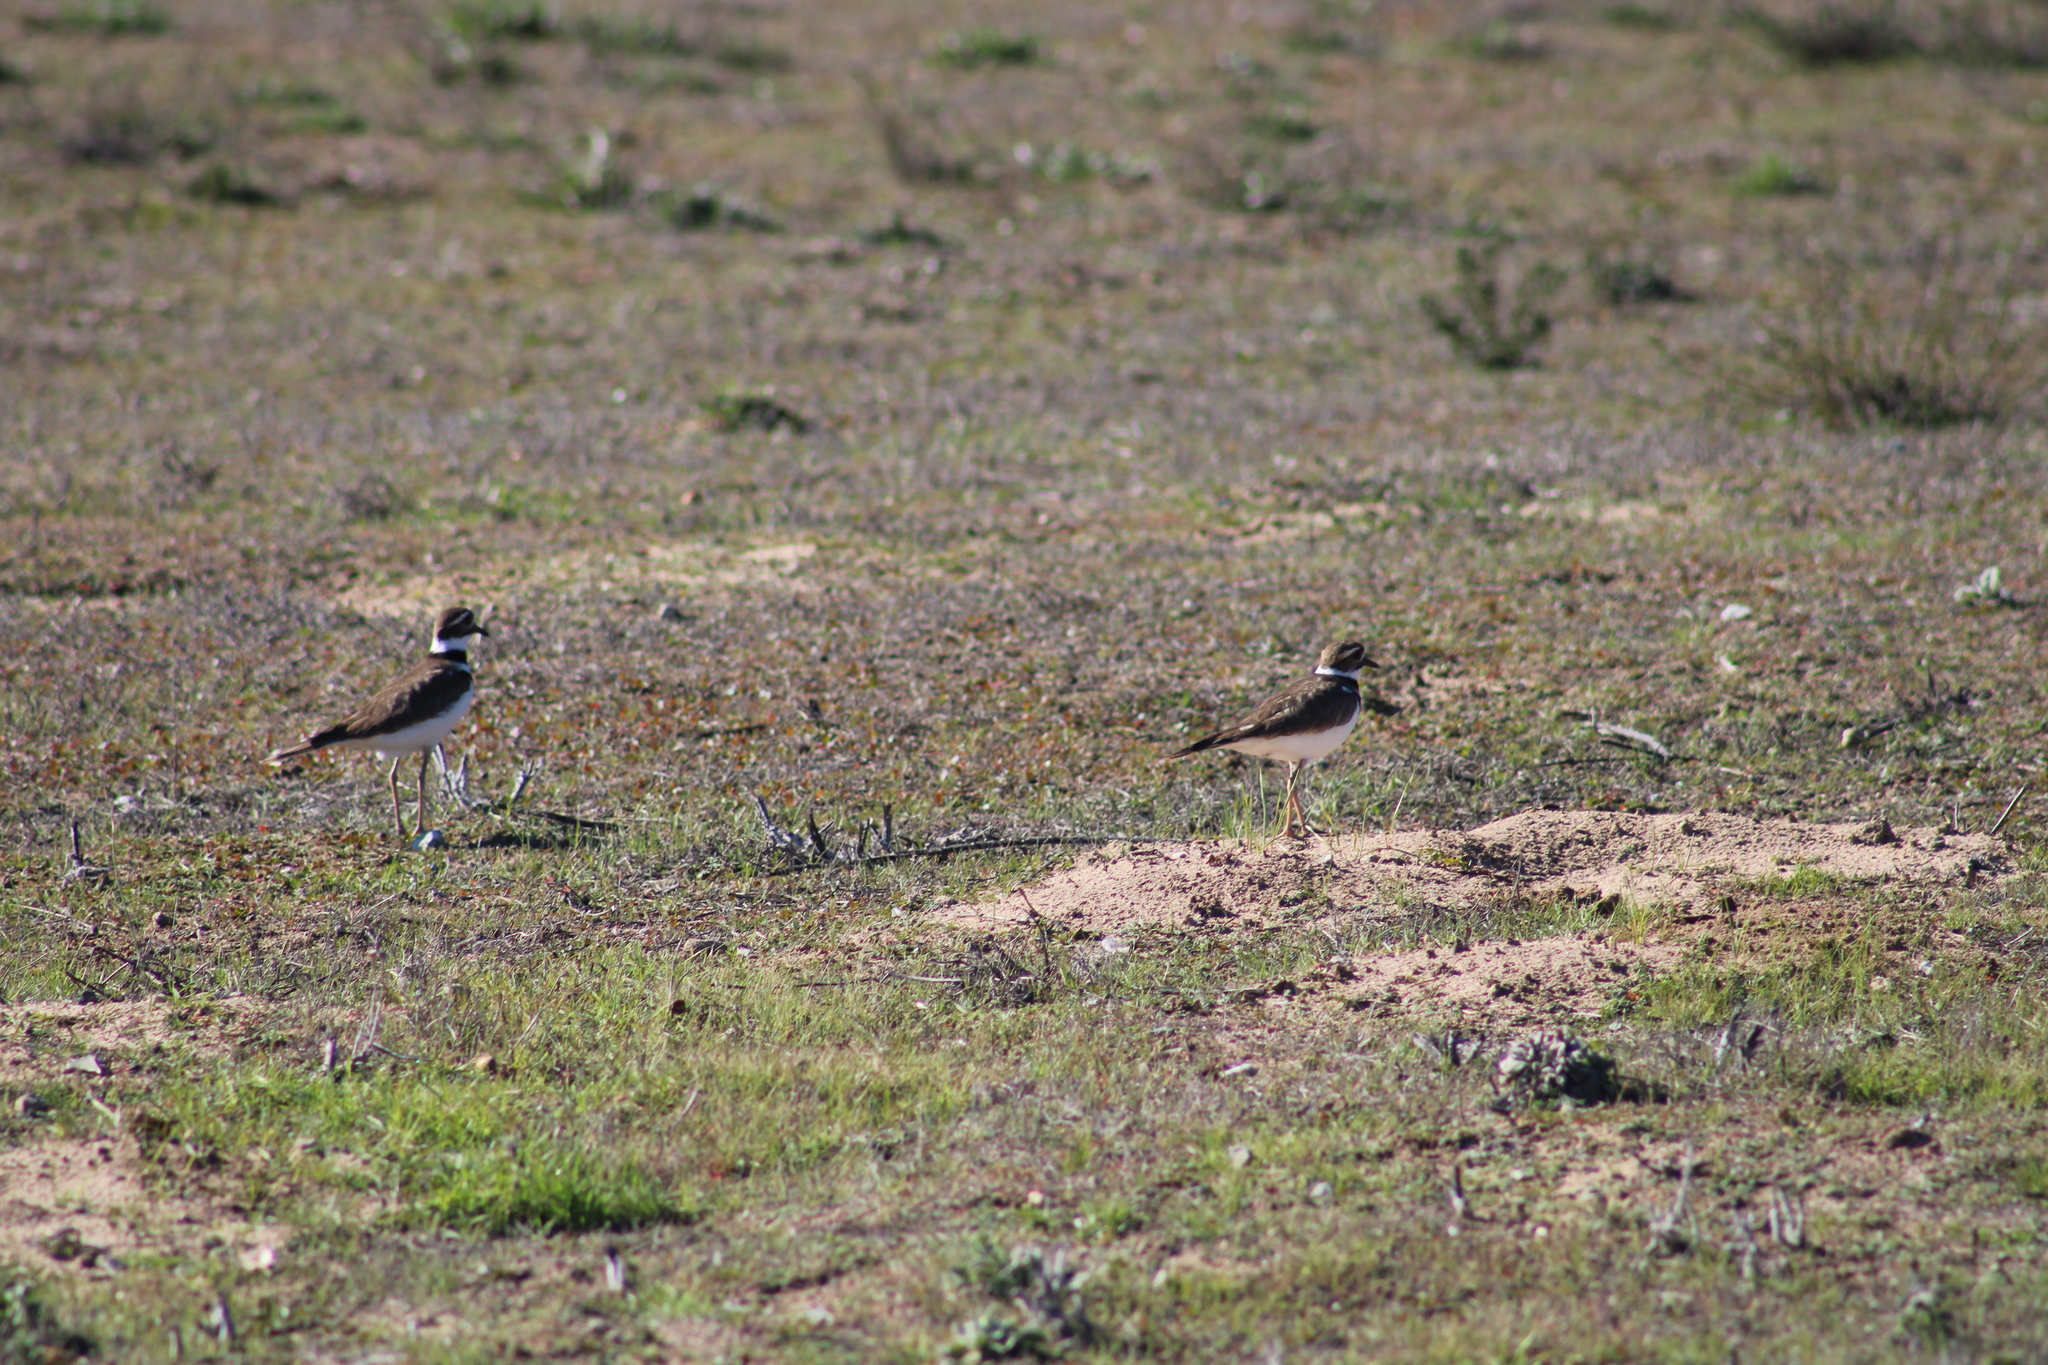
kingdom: Animalia
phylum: Chordata
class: Aves
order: Charadriiformes
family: Charadriidae
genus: Charadrius
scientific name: Charadrius vociferus
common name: Killdeer
